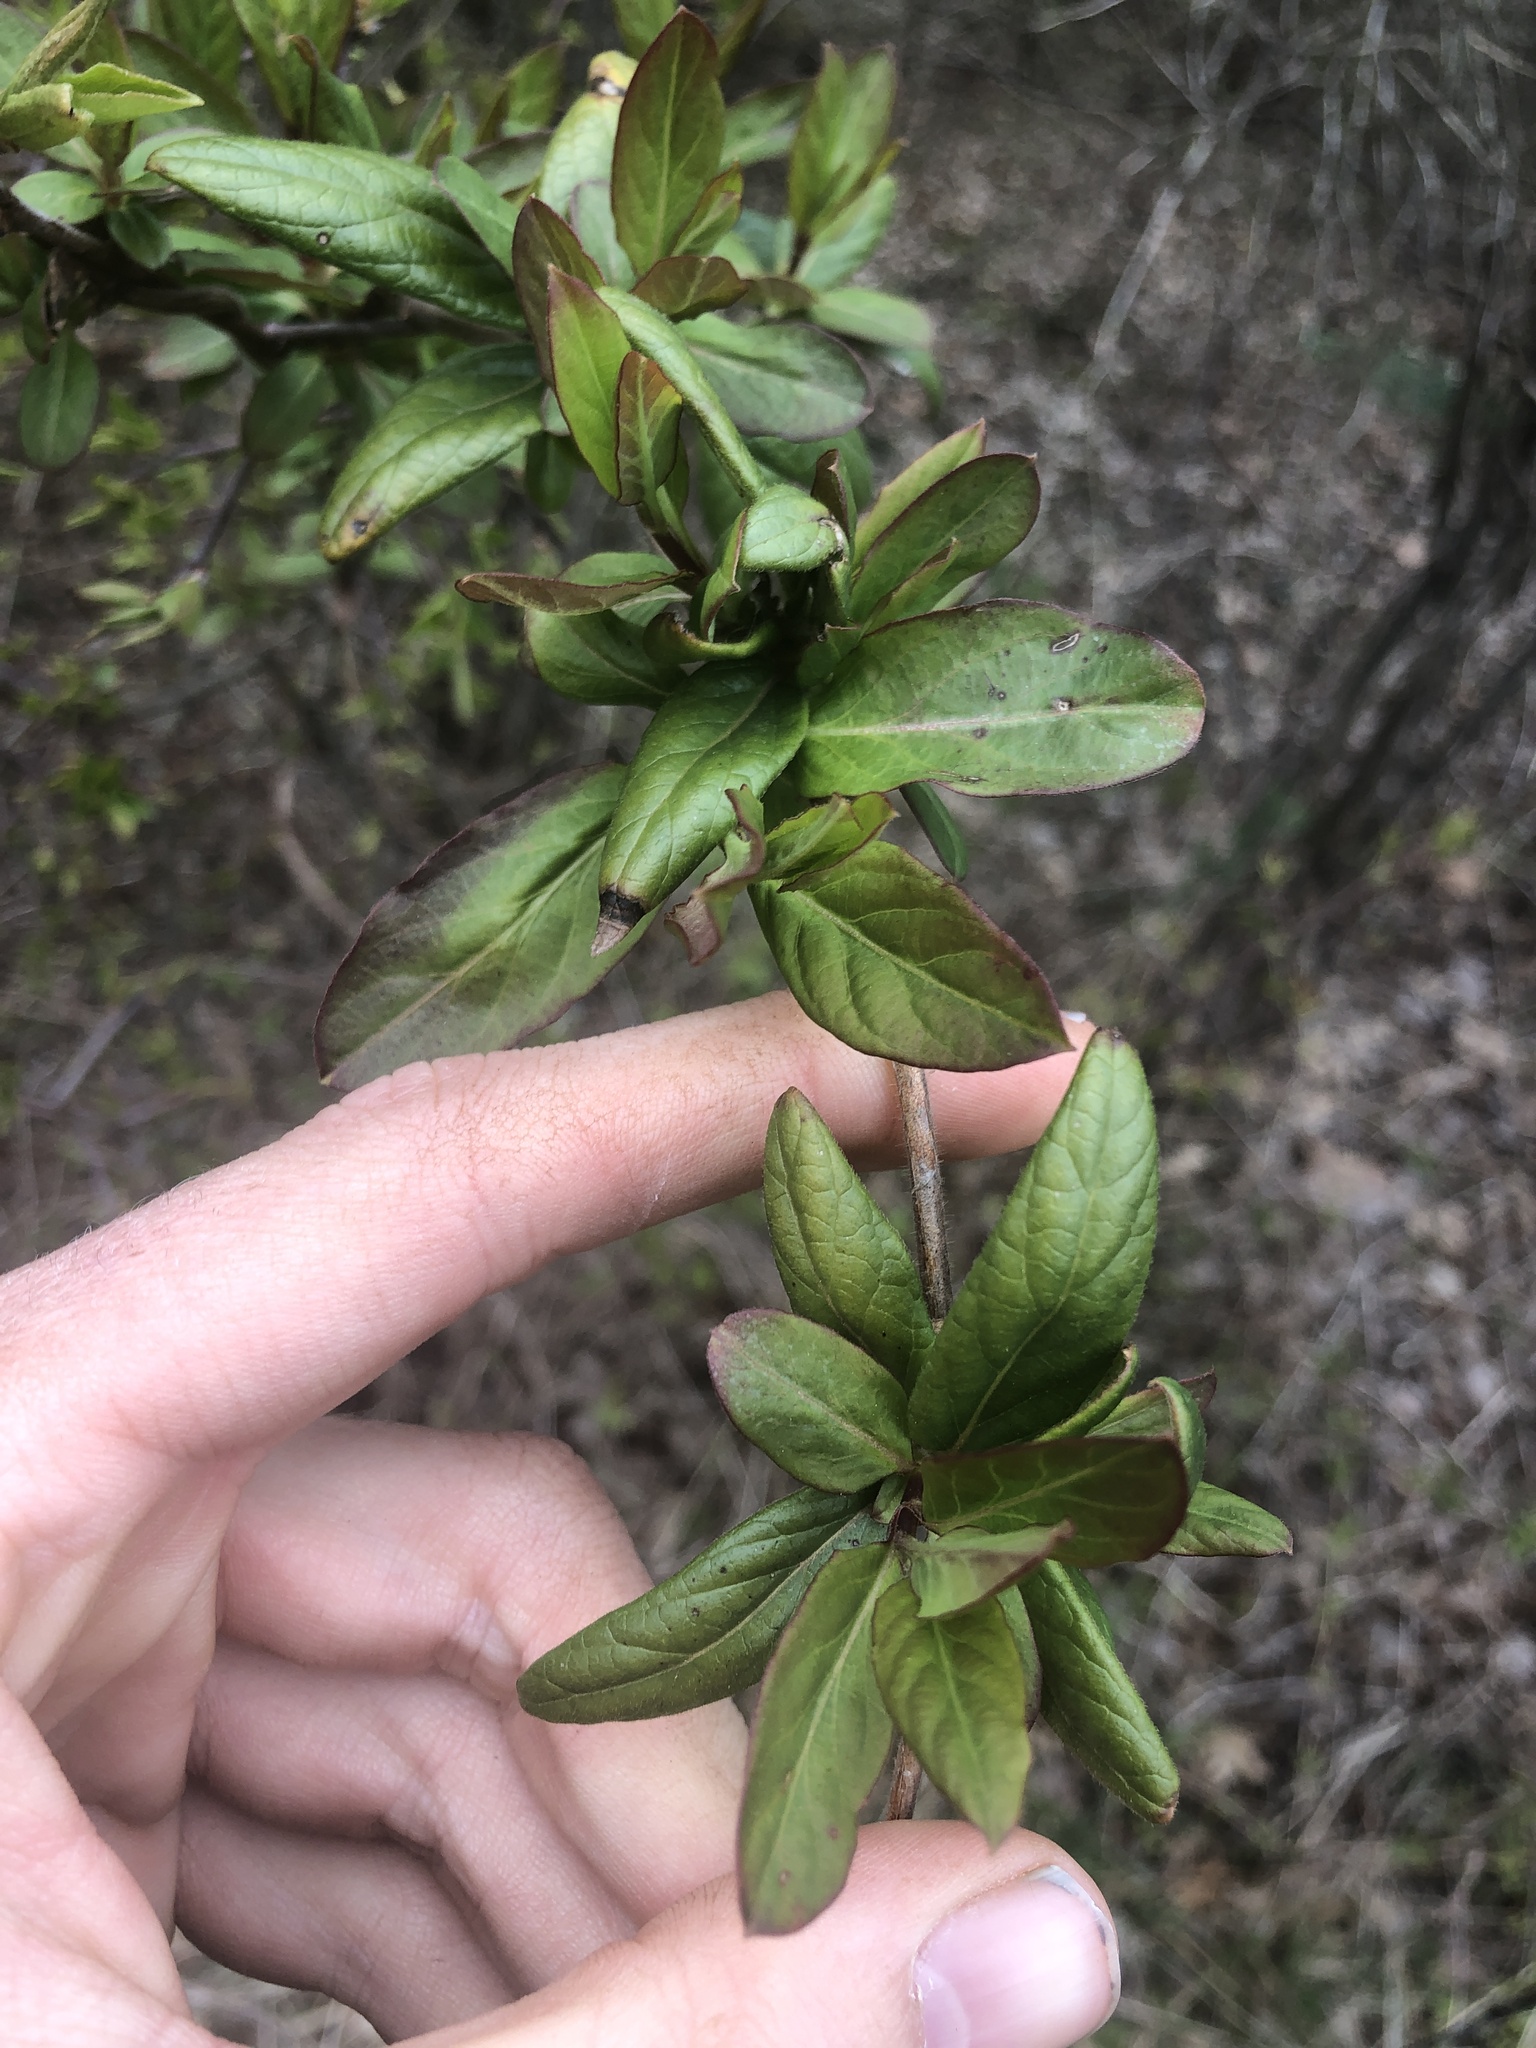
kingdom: Plantae
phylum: Tracheophyta
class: Magnoliopsida
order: Dipsacales
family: Caprifoliaceae
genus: Lonicera
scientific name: Lonicera japonica
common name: Japanese honeysuckle
